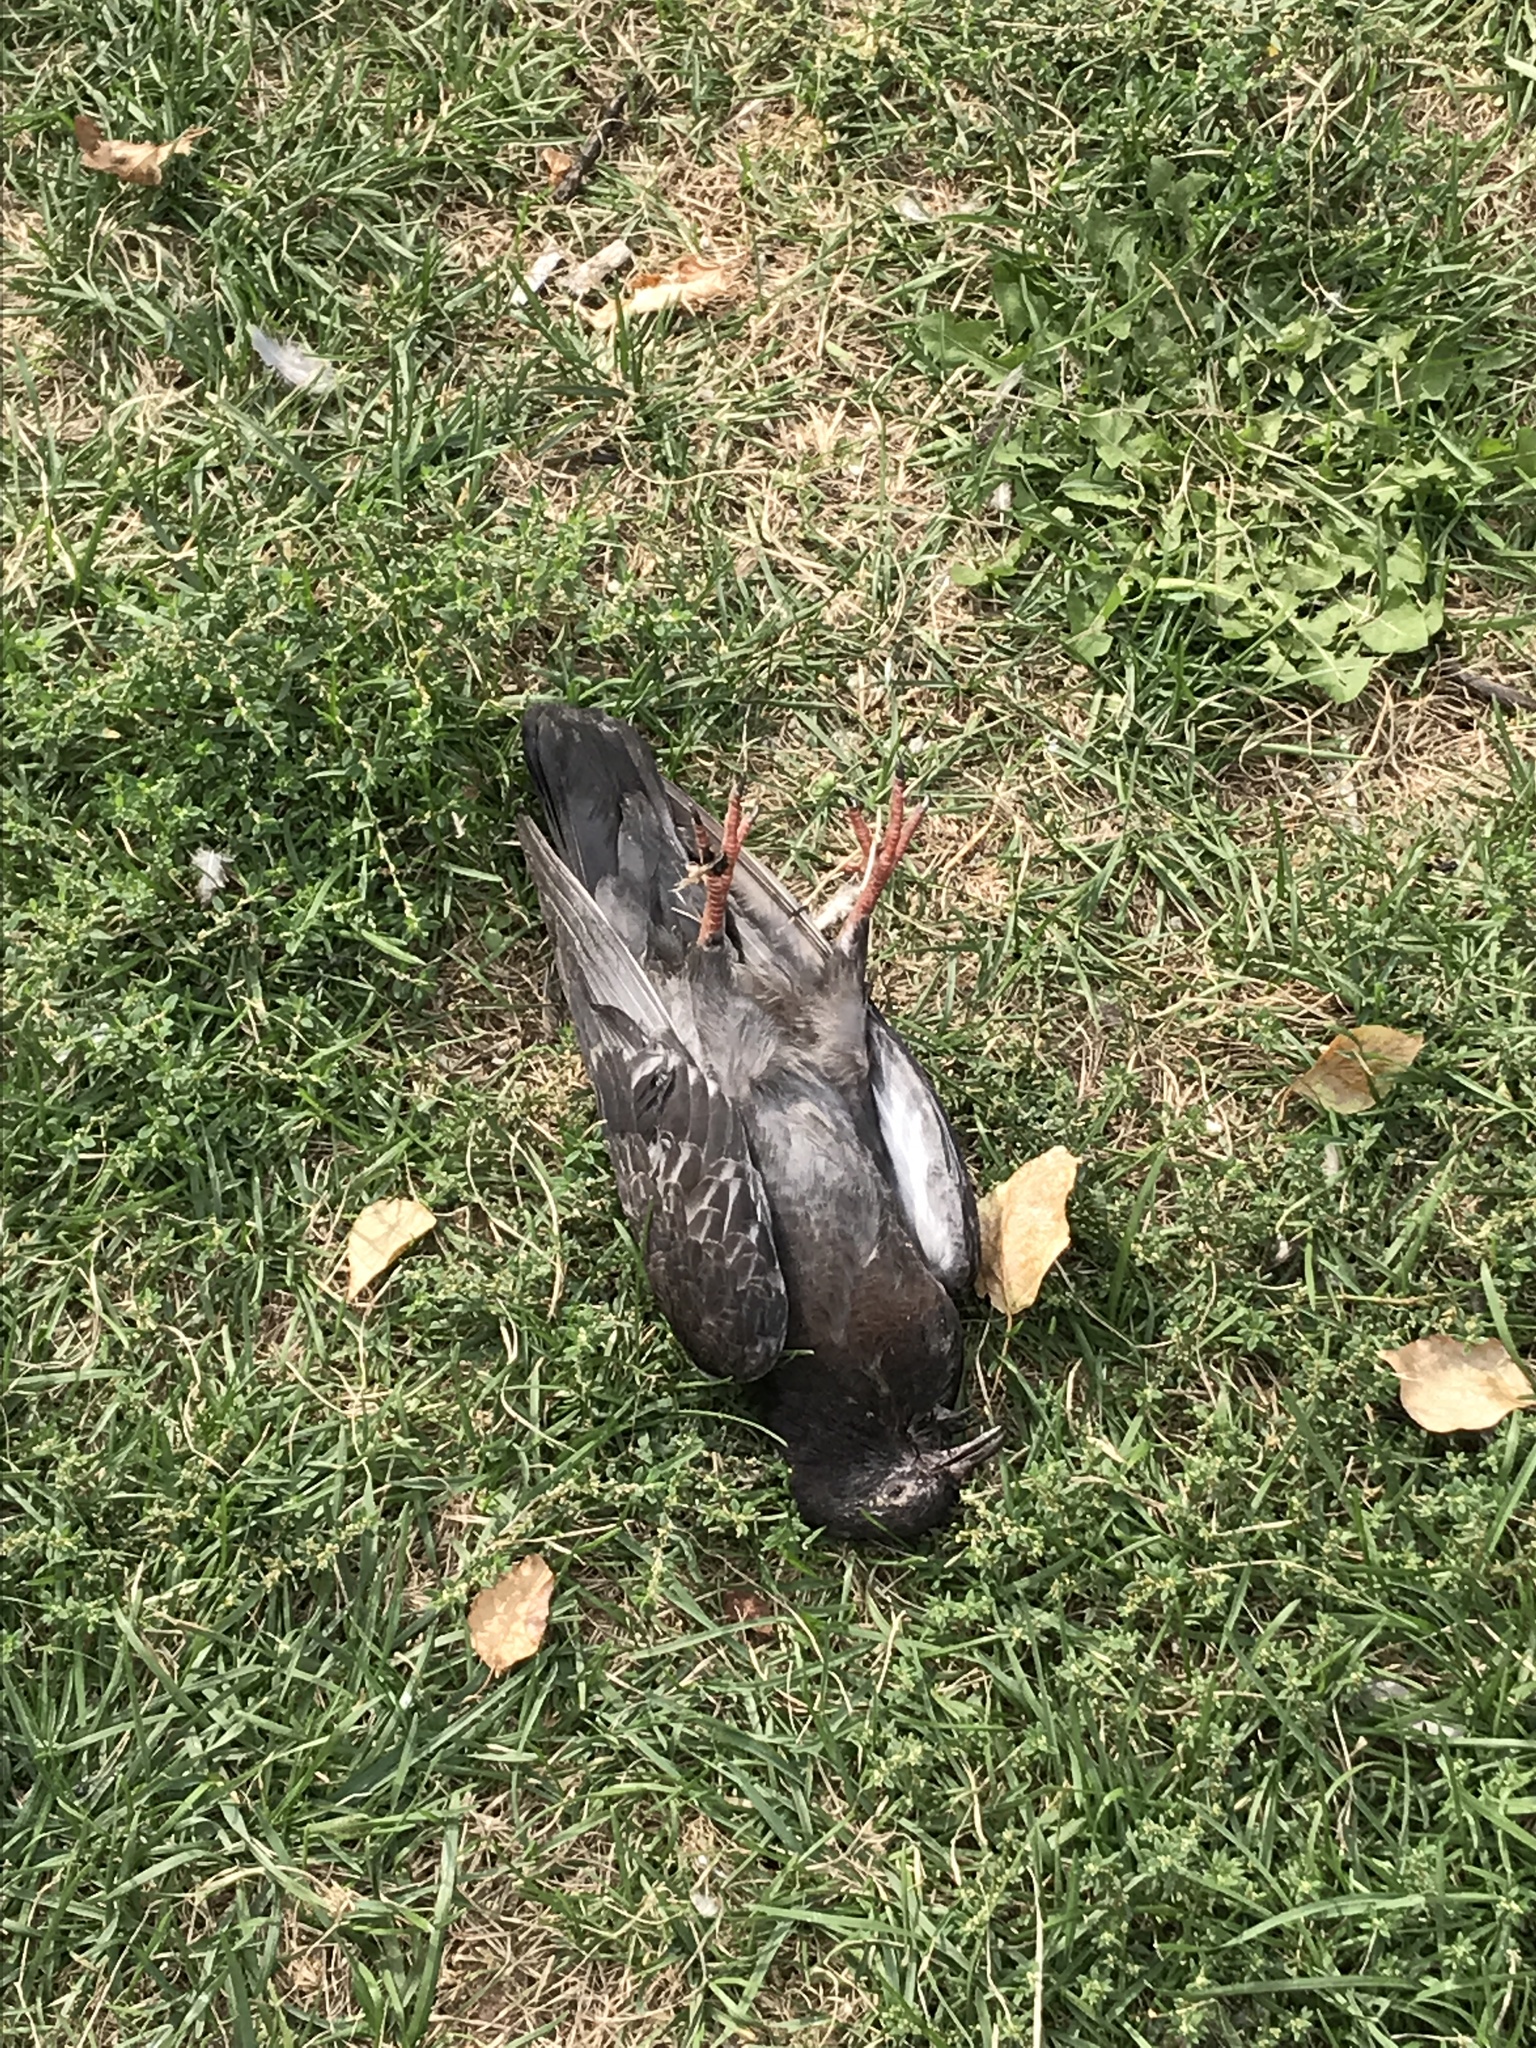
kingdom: Animalia
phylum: Chordata
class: Aves
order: Columbiformes
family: Columbidae
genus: Columba
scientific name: Columba livia
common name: Rock pigeon
